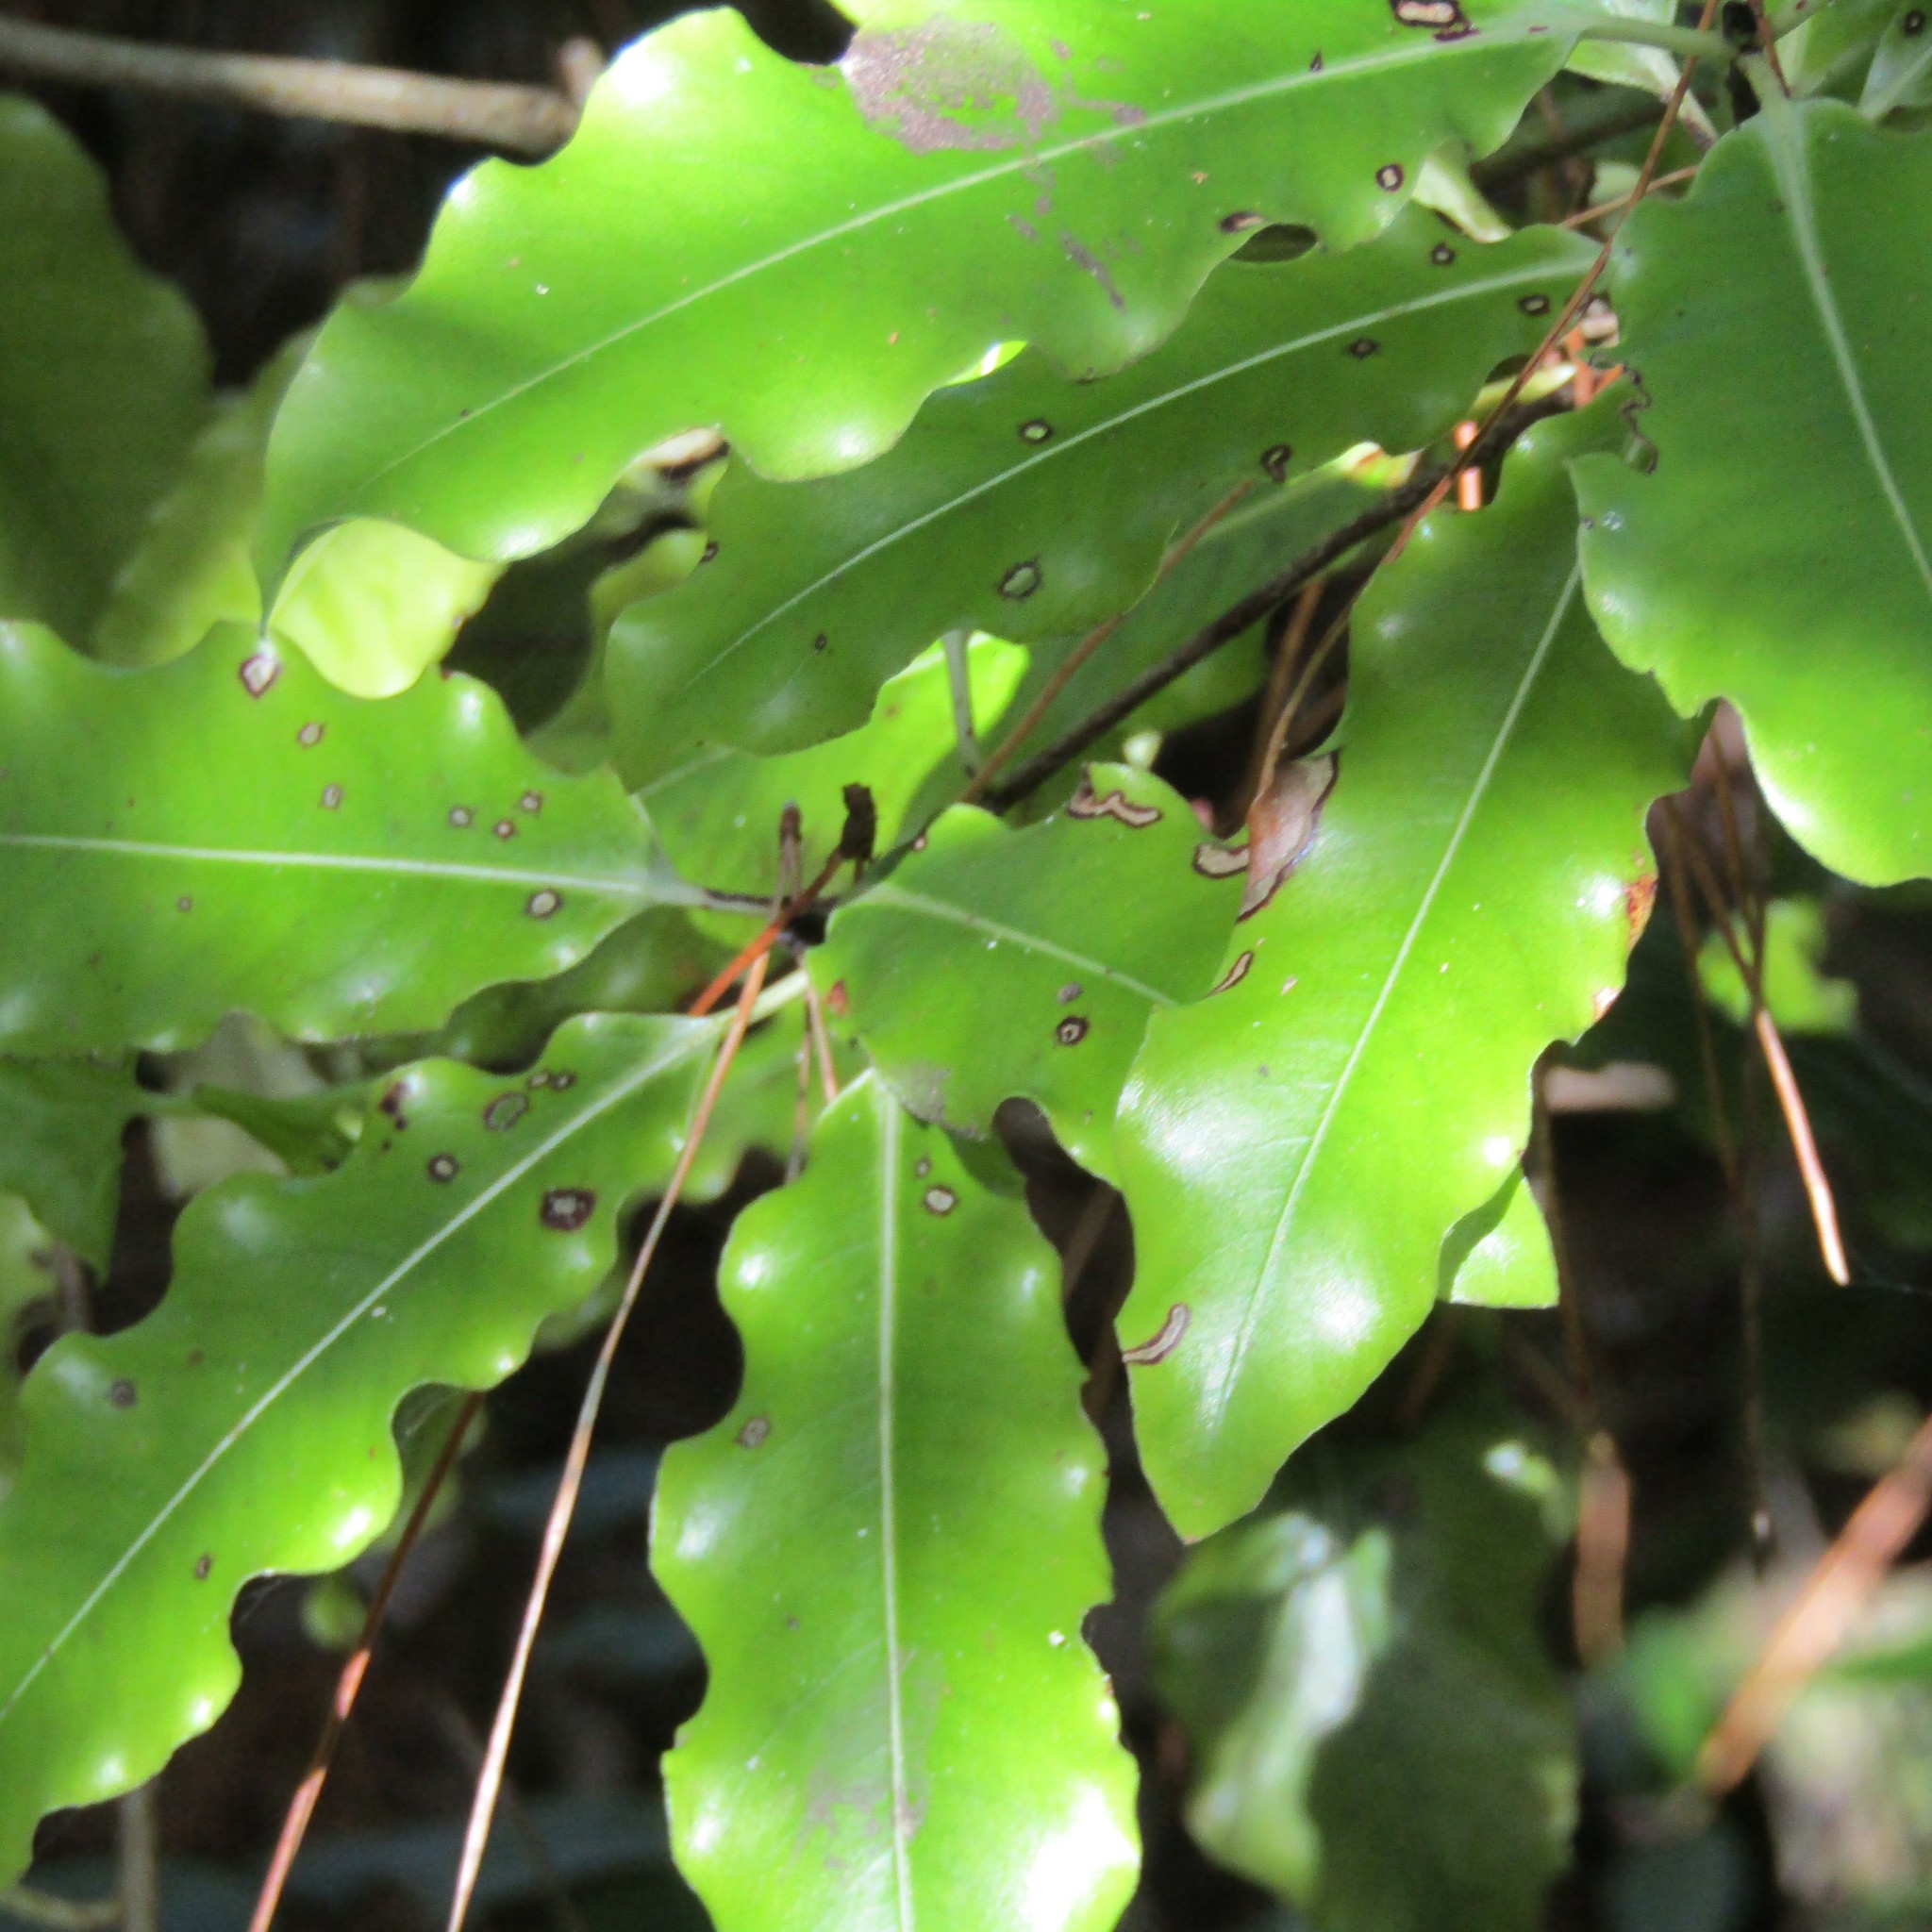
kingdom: Plantae
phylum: Tracheophyta
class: Magnoliopsida
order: Apiales
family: Pittosporaceae
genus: Pittosporum
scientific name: Pittosporum eugenioides
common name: Lemonwood
